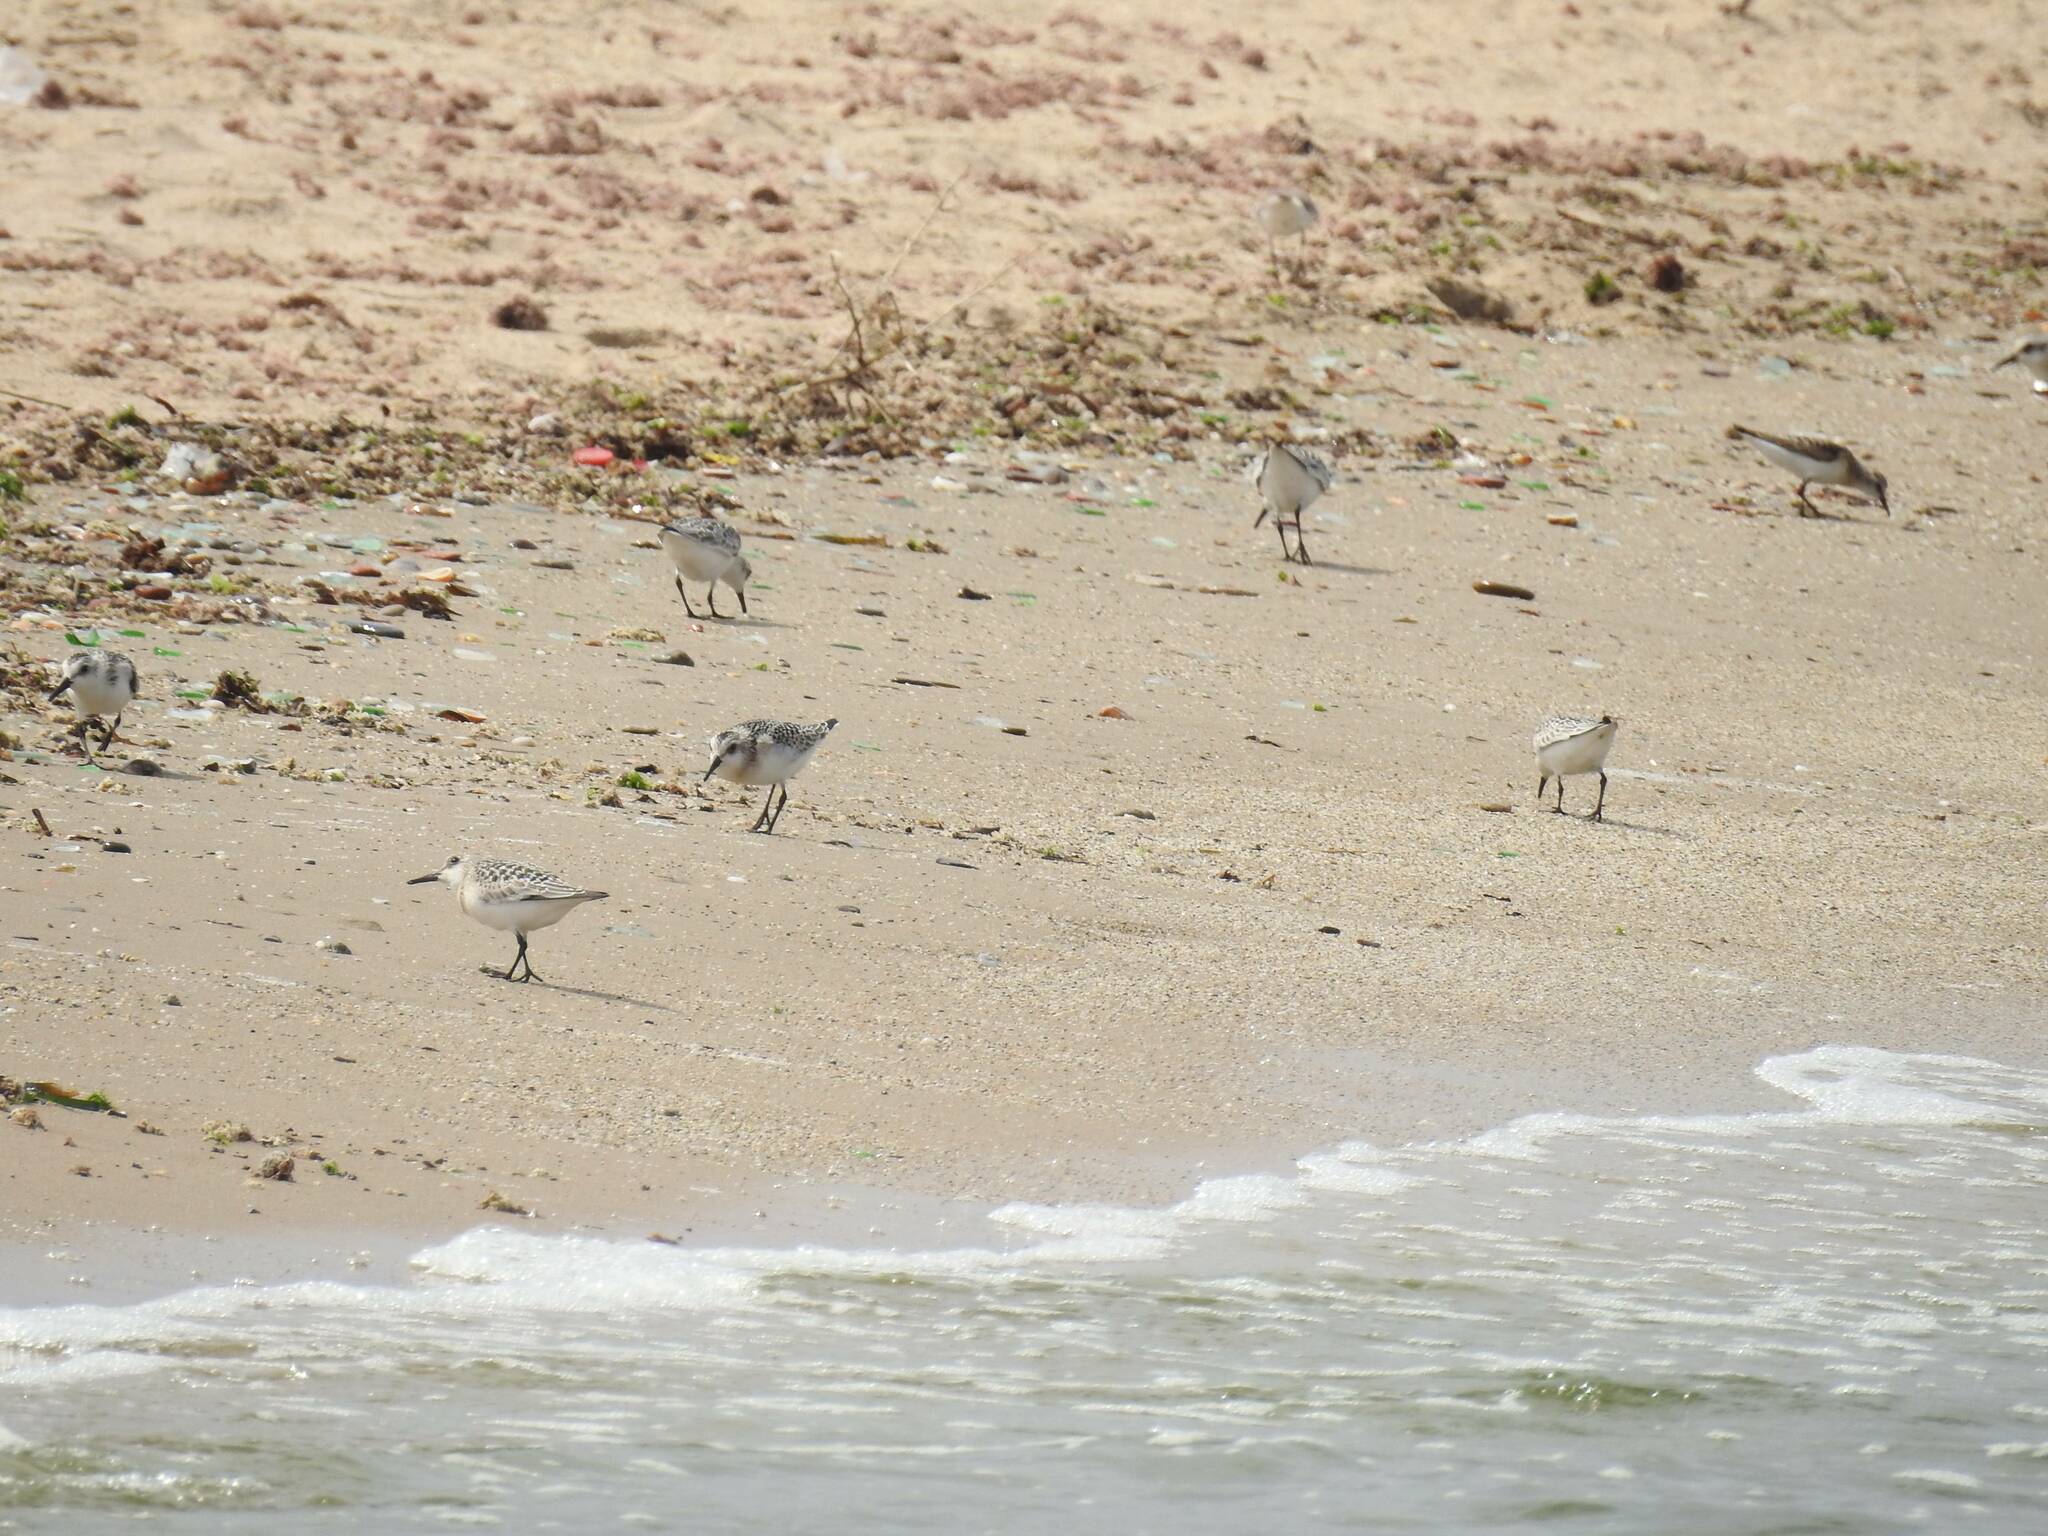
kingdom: Animalia
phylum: Chordata
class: Aves
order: Charadriiformes
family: Scolopacidae
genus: Calidris
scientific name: Calidris alba
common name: Sanderling
